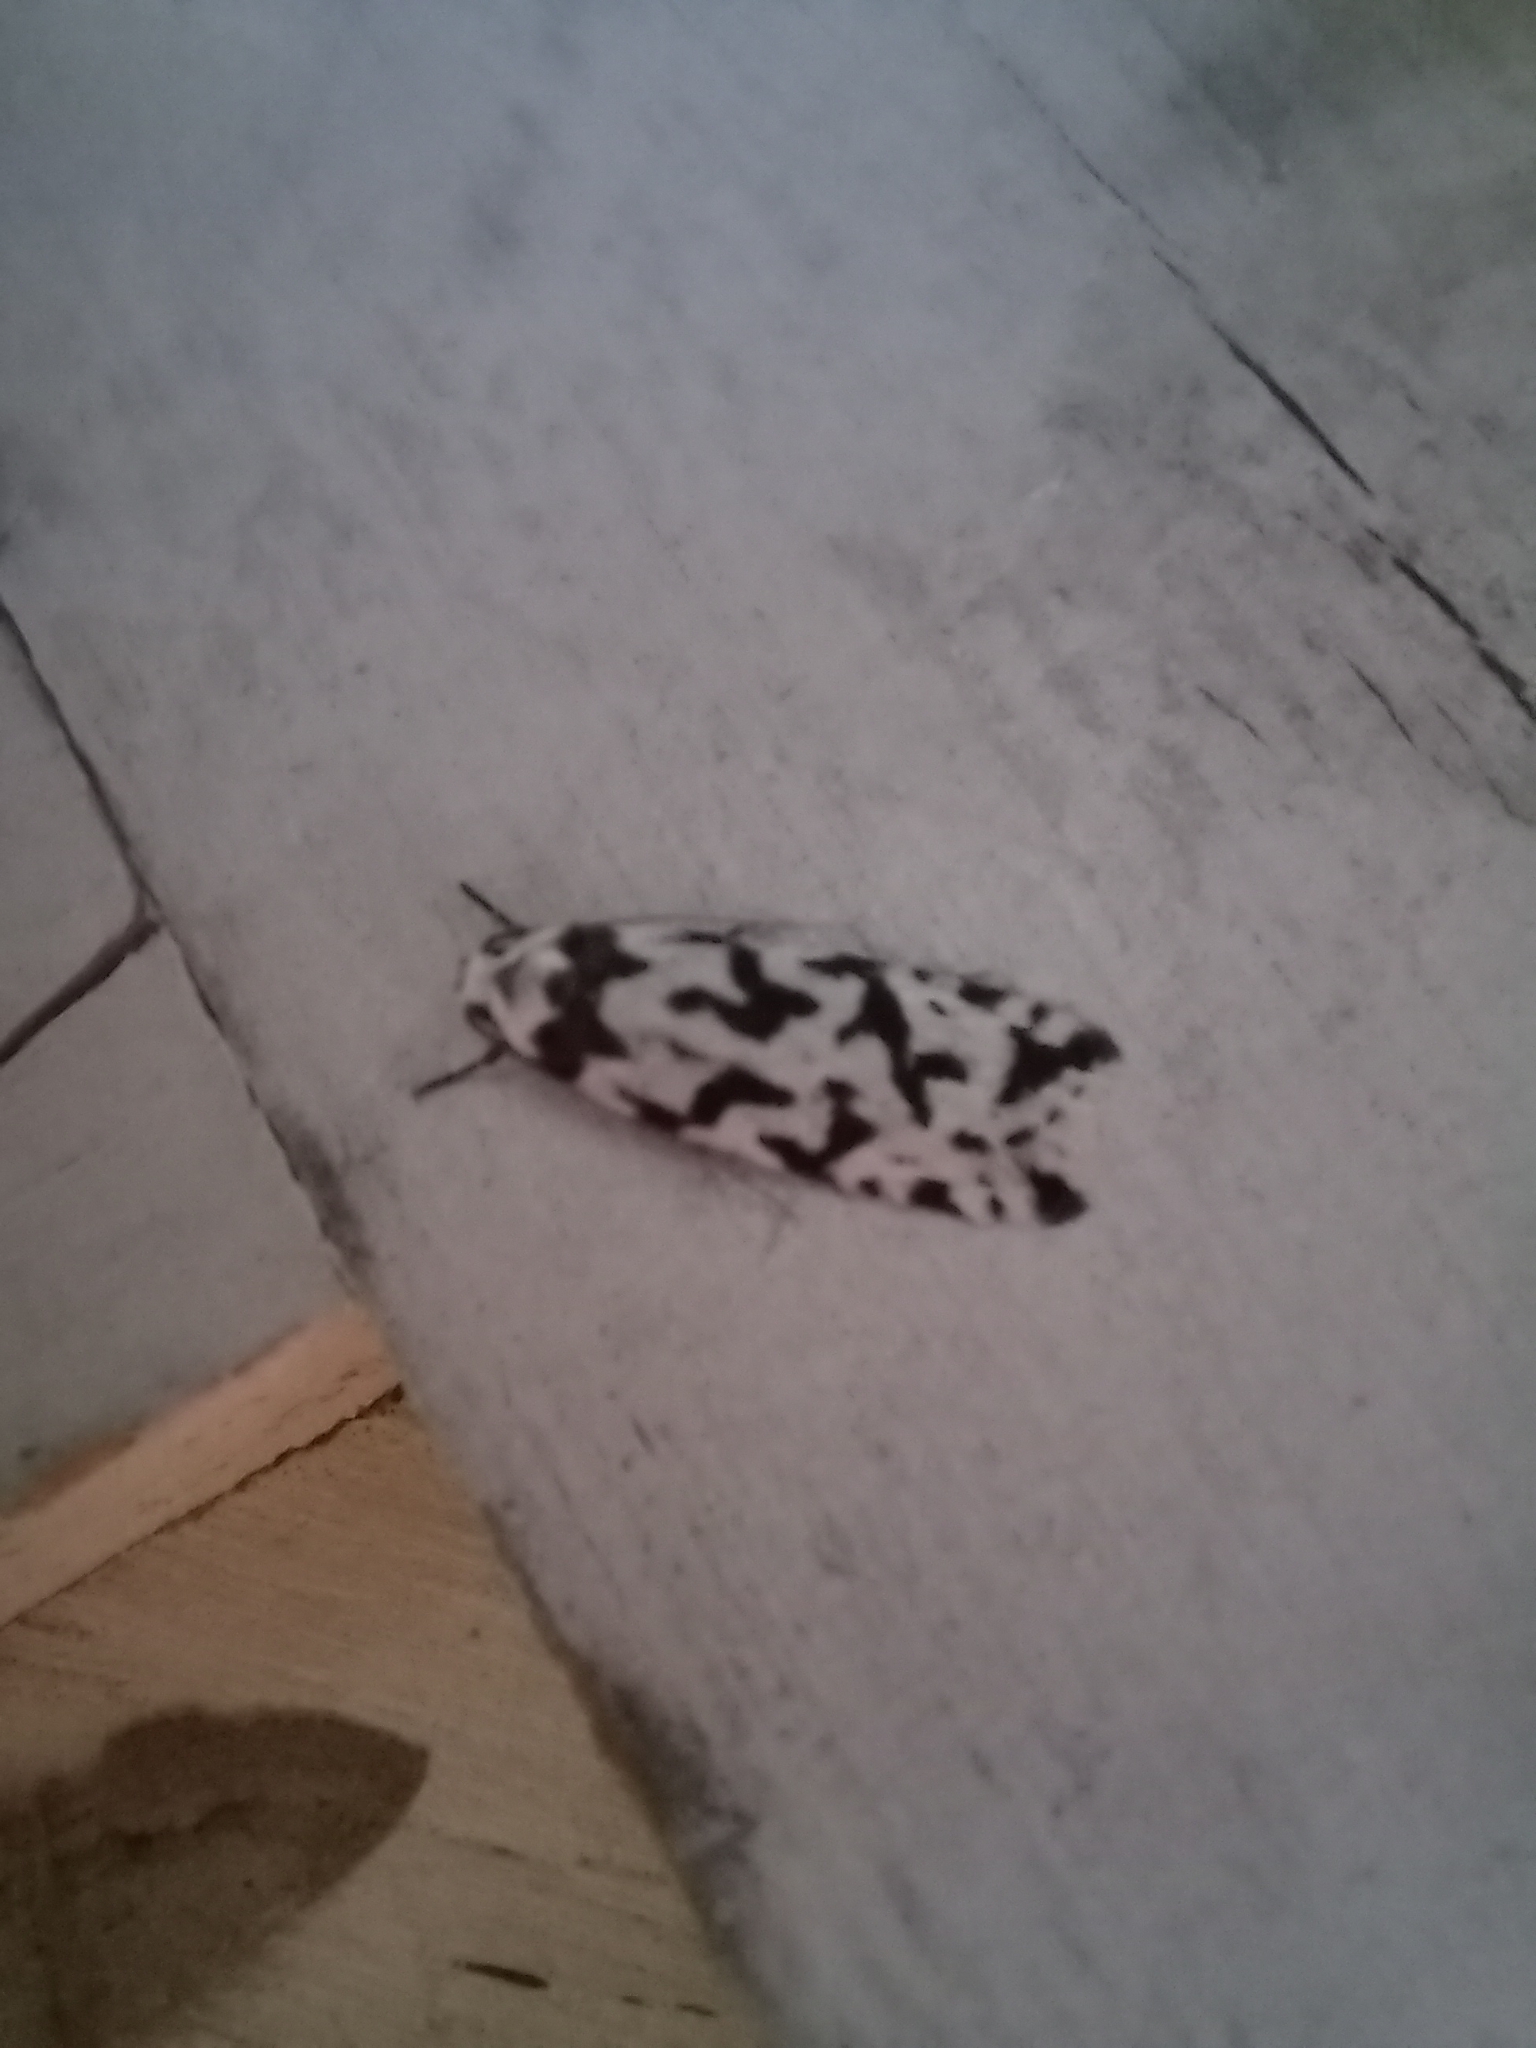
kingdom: Animalia
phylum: Arthropoda
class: Insecta
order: Lepidoptera
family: Oecophoridae
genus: Izatha
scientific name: Izatha acmonias
